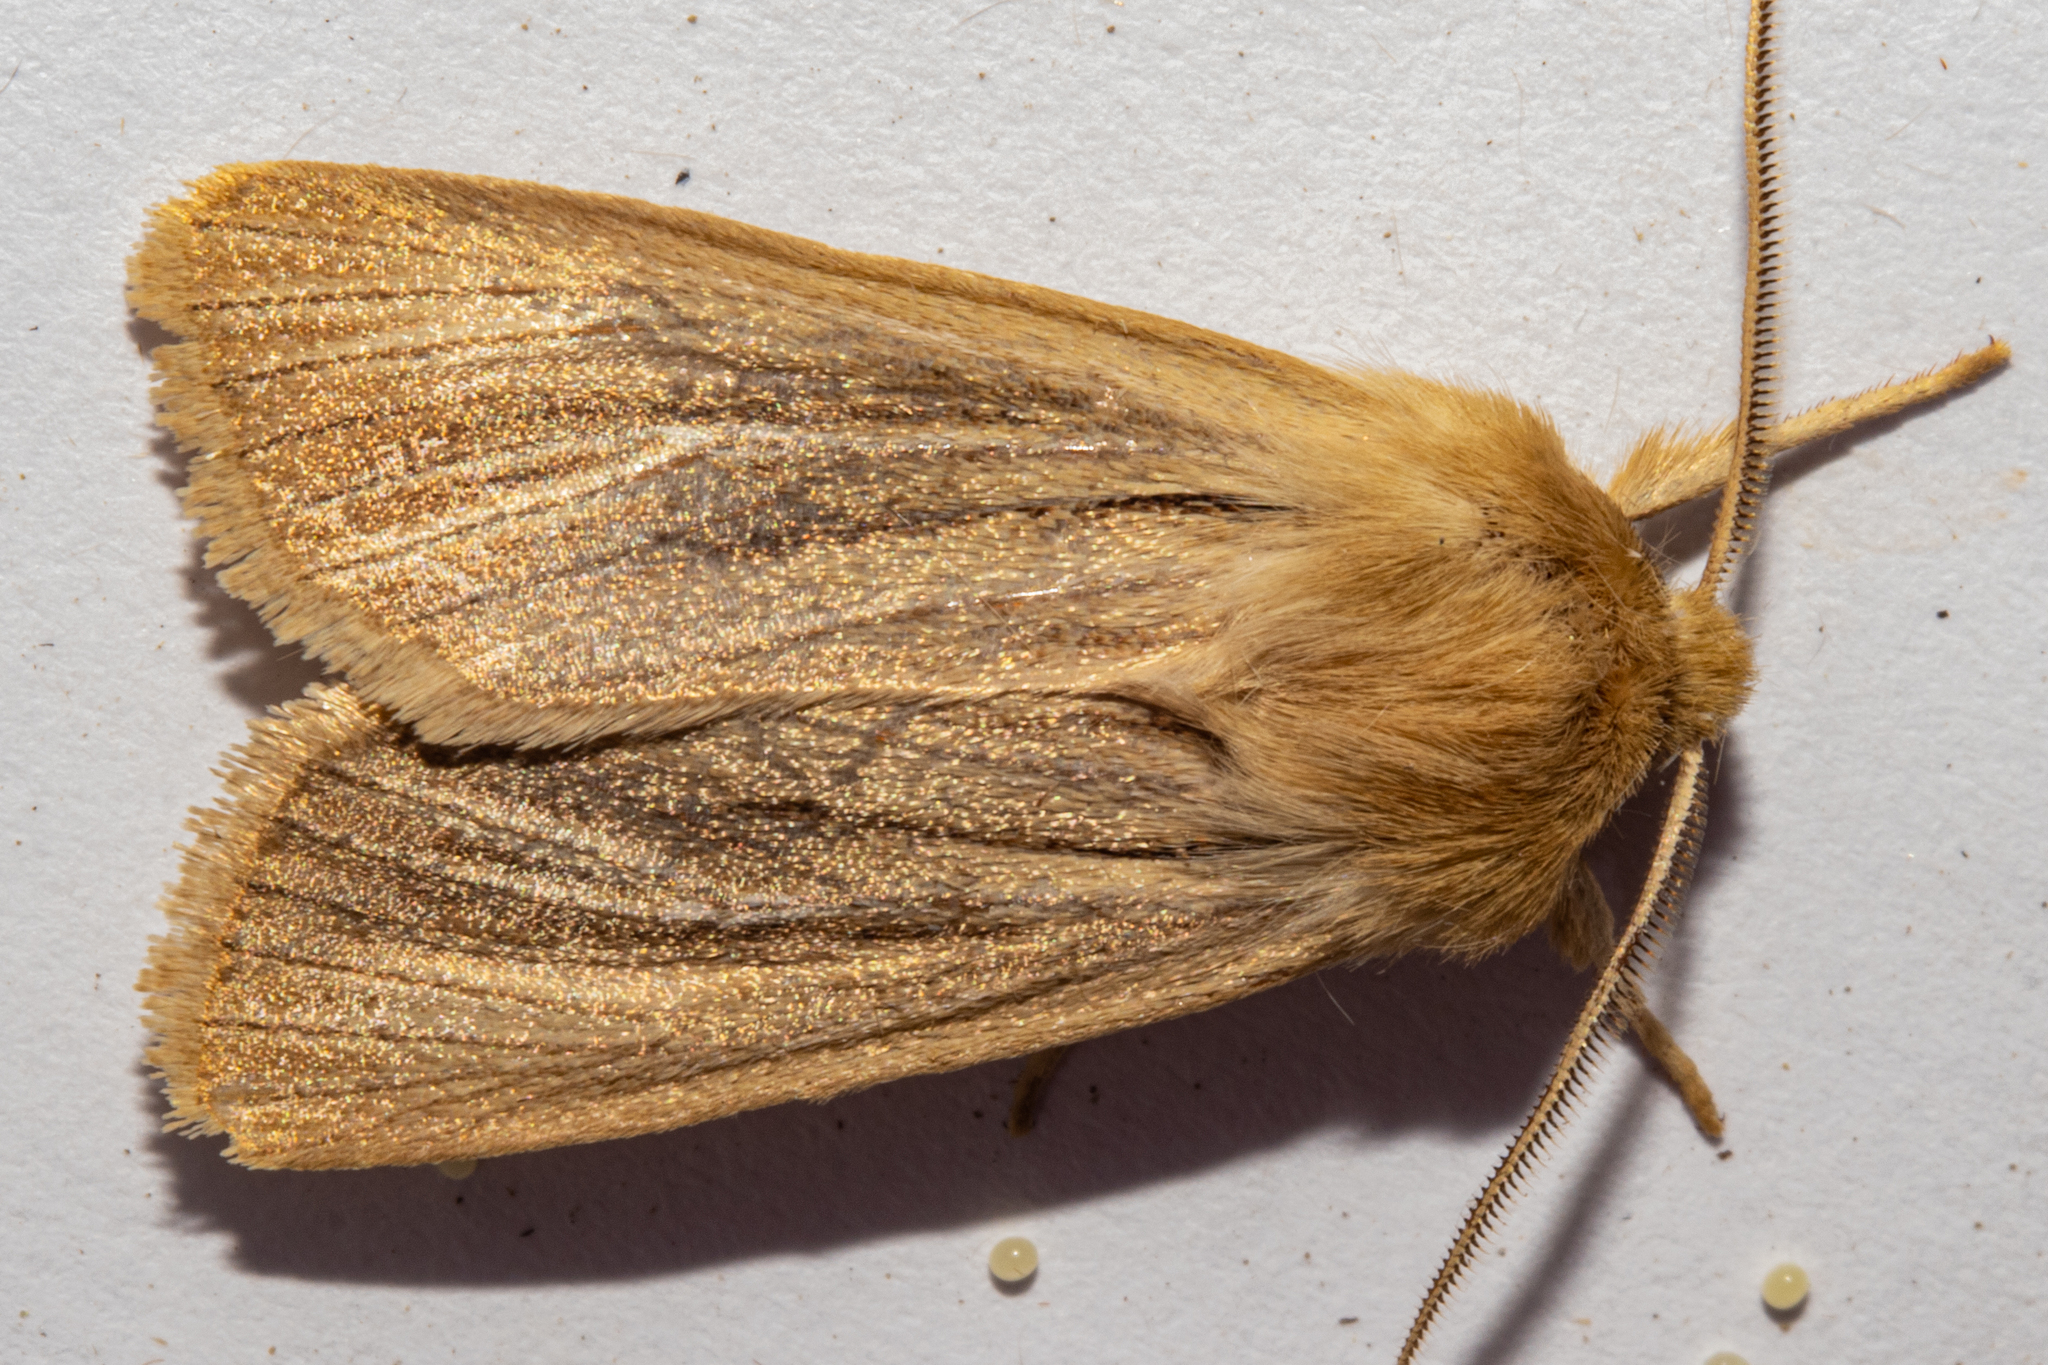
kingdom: Animalia
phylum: Arthropoda
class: Insecta
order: Lepidoptera
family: Noctuidae
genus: Ichneutica
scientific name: Ichneutica
